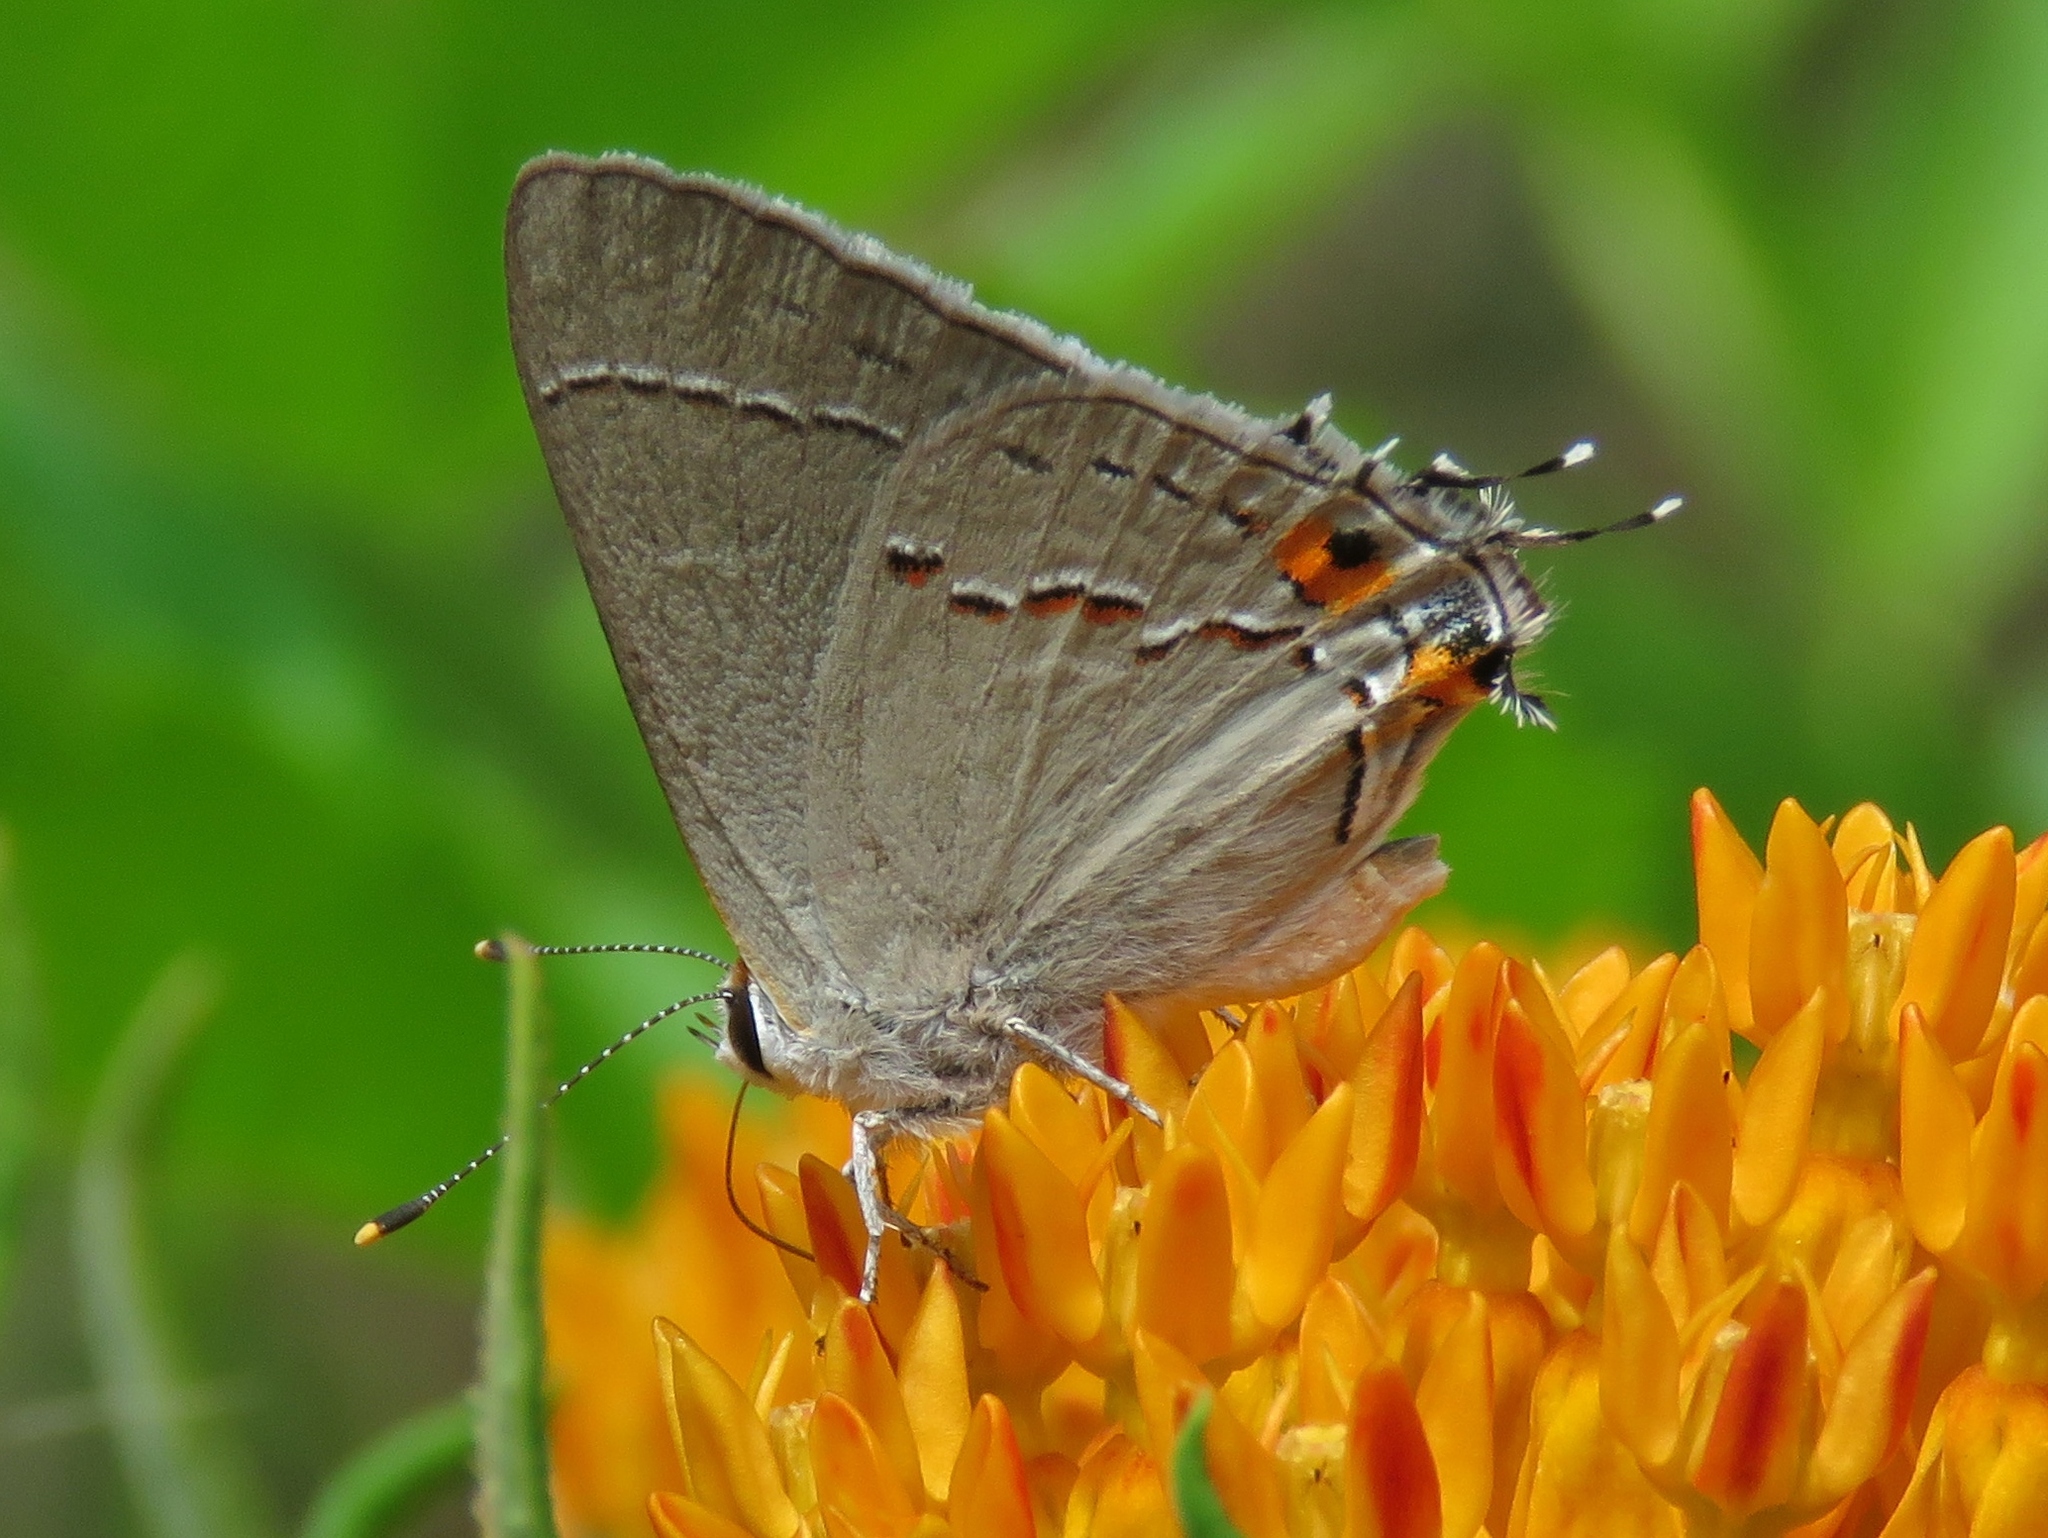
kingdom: Animalia
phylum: Arthropoda
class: Insecta
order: Lepidoptera
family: Lycaenidae
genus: Strymon
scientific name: Strymon melinus
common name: Gray hairstreak
